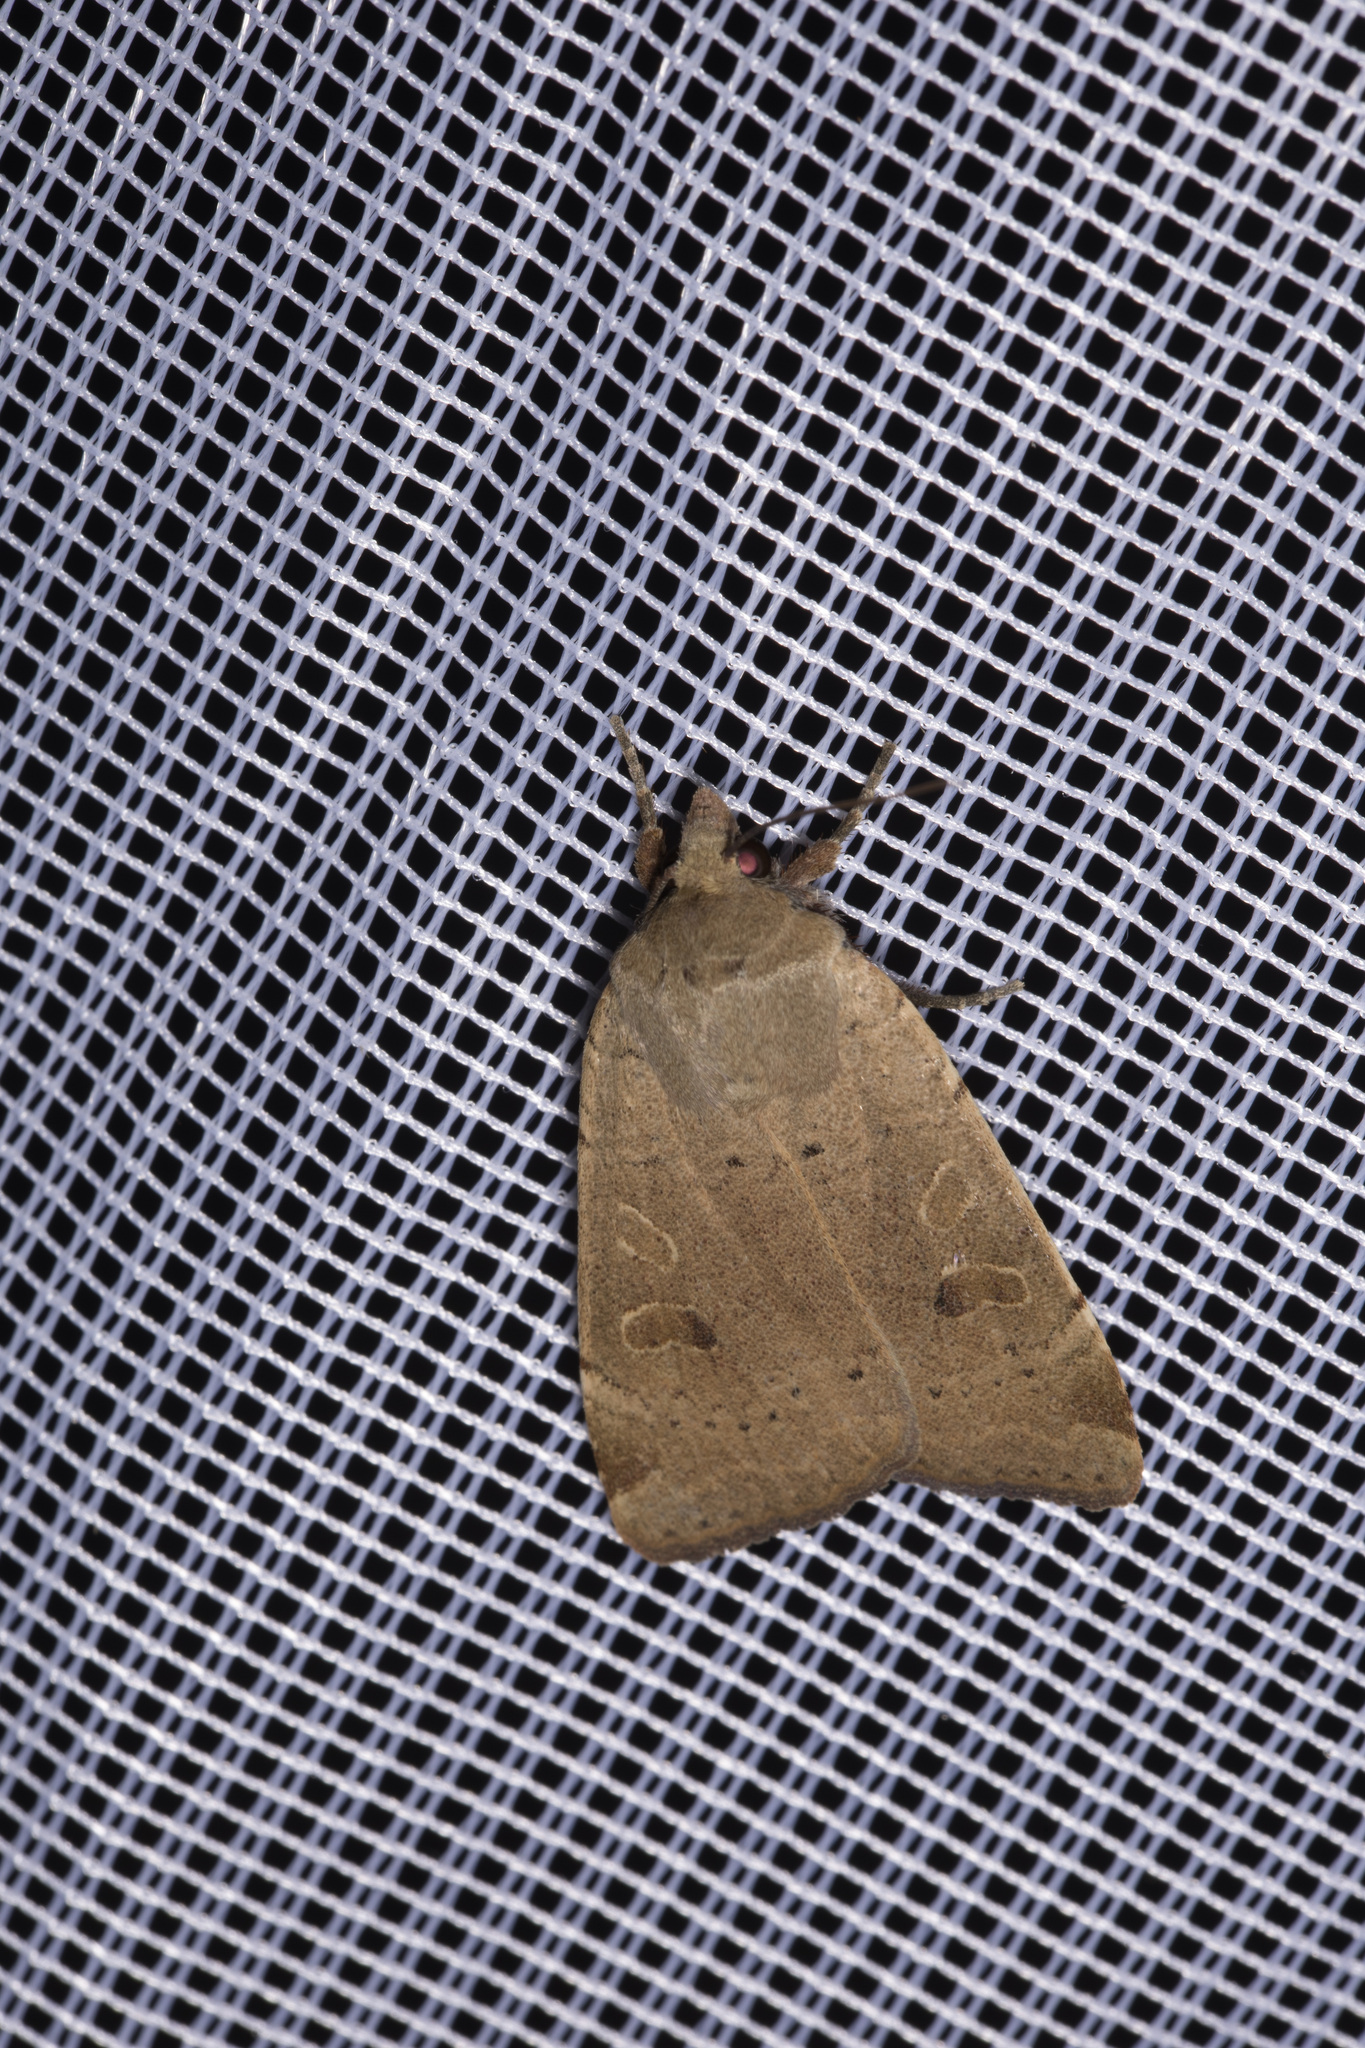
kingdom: Animalia
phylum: Arthropoda
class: Insecta
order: Lepidoptera
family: Noctuidae
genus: Noctua
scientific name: Noctua comes
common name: Lesser yellow underwing
